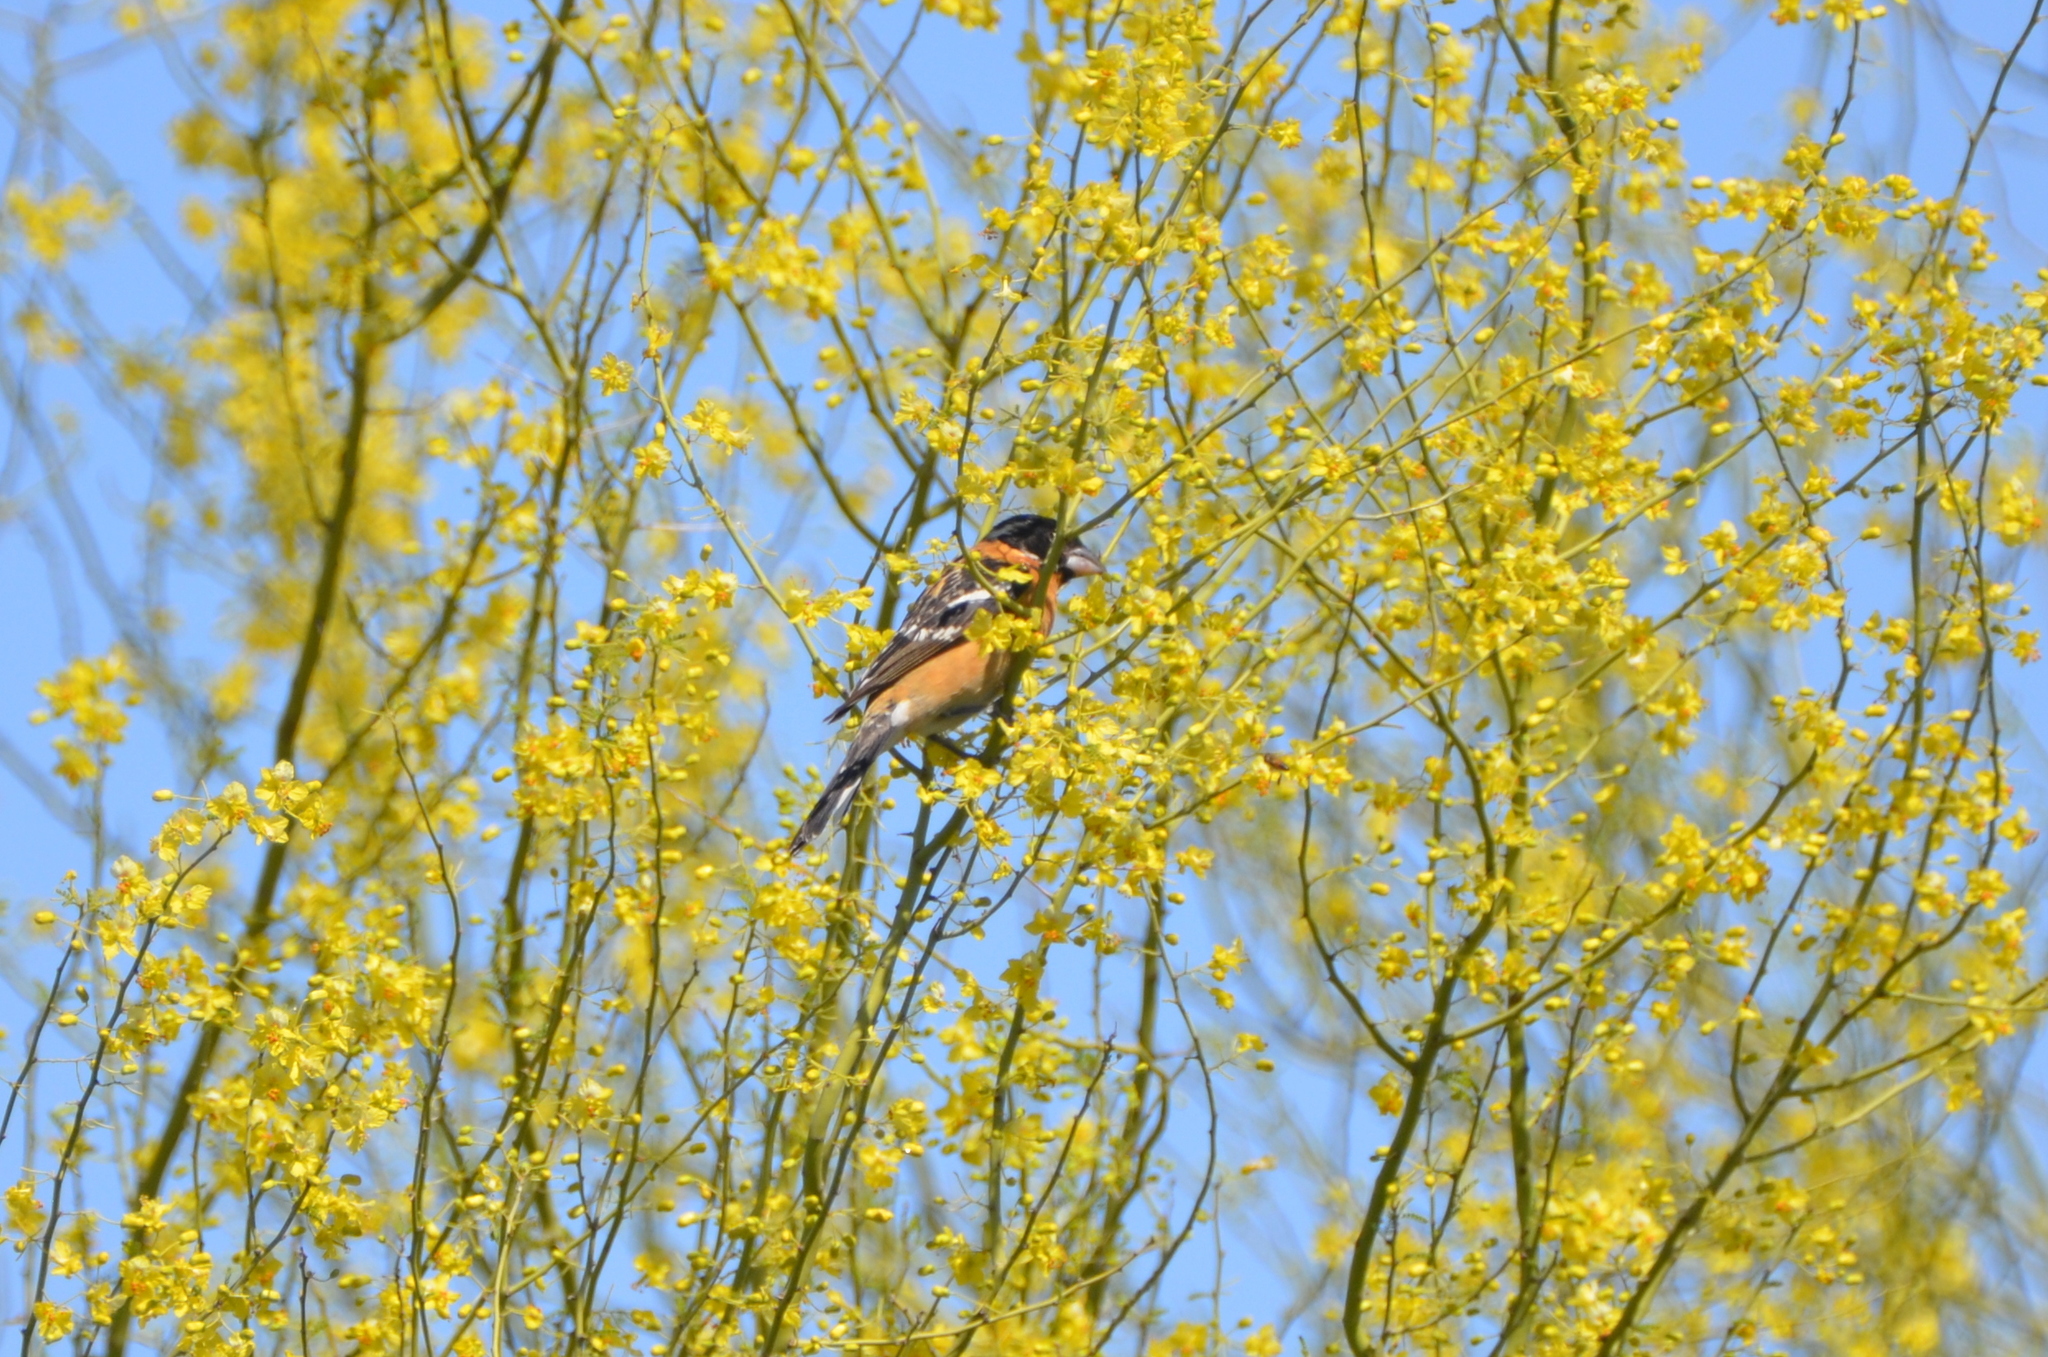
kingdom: Animalia
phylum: Chordata
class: Aves
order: Passeriformes
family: Cardinalidae
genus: Pheucticus
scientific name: Pheucticus melanocephalus
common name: Black-headed grosbeak
